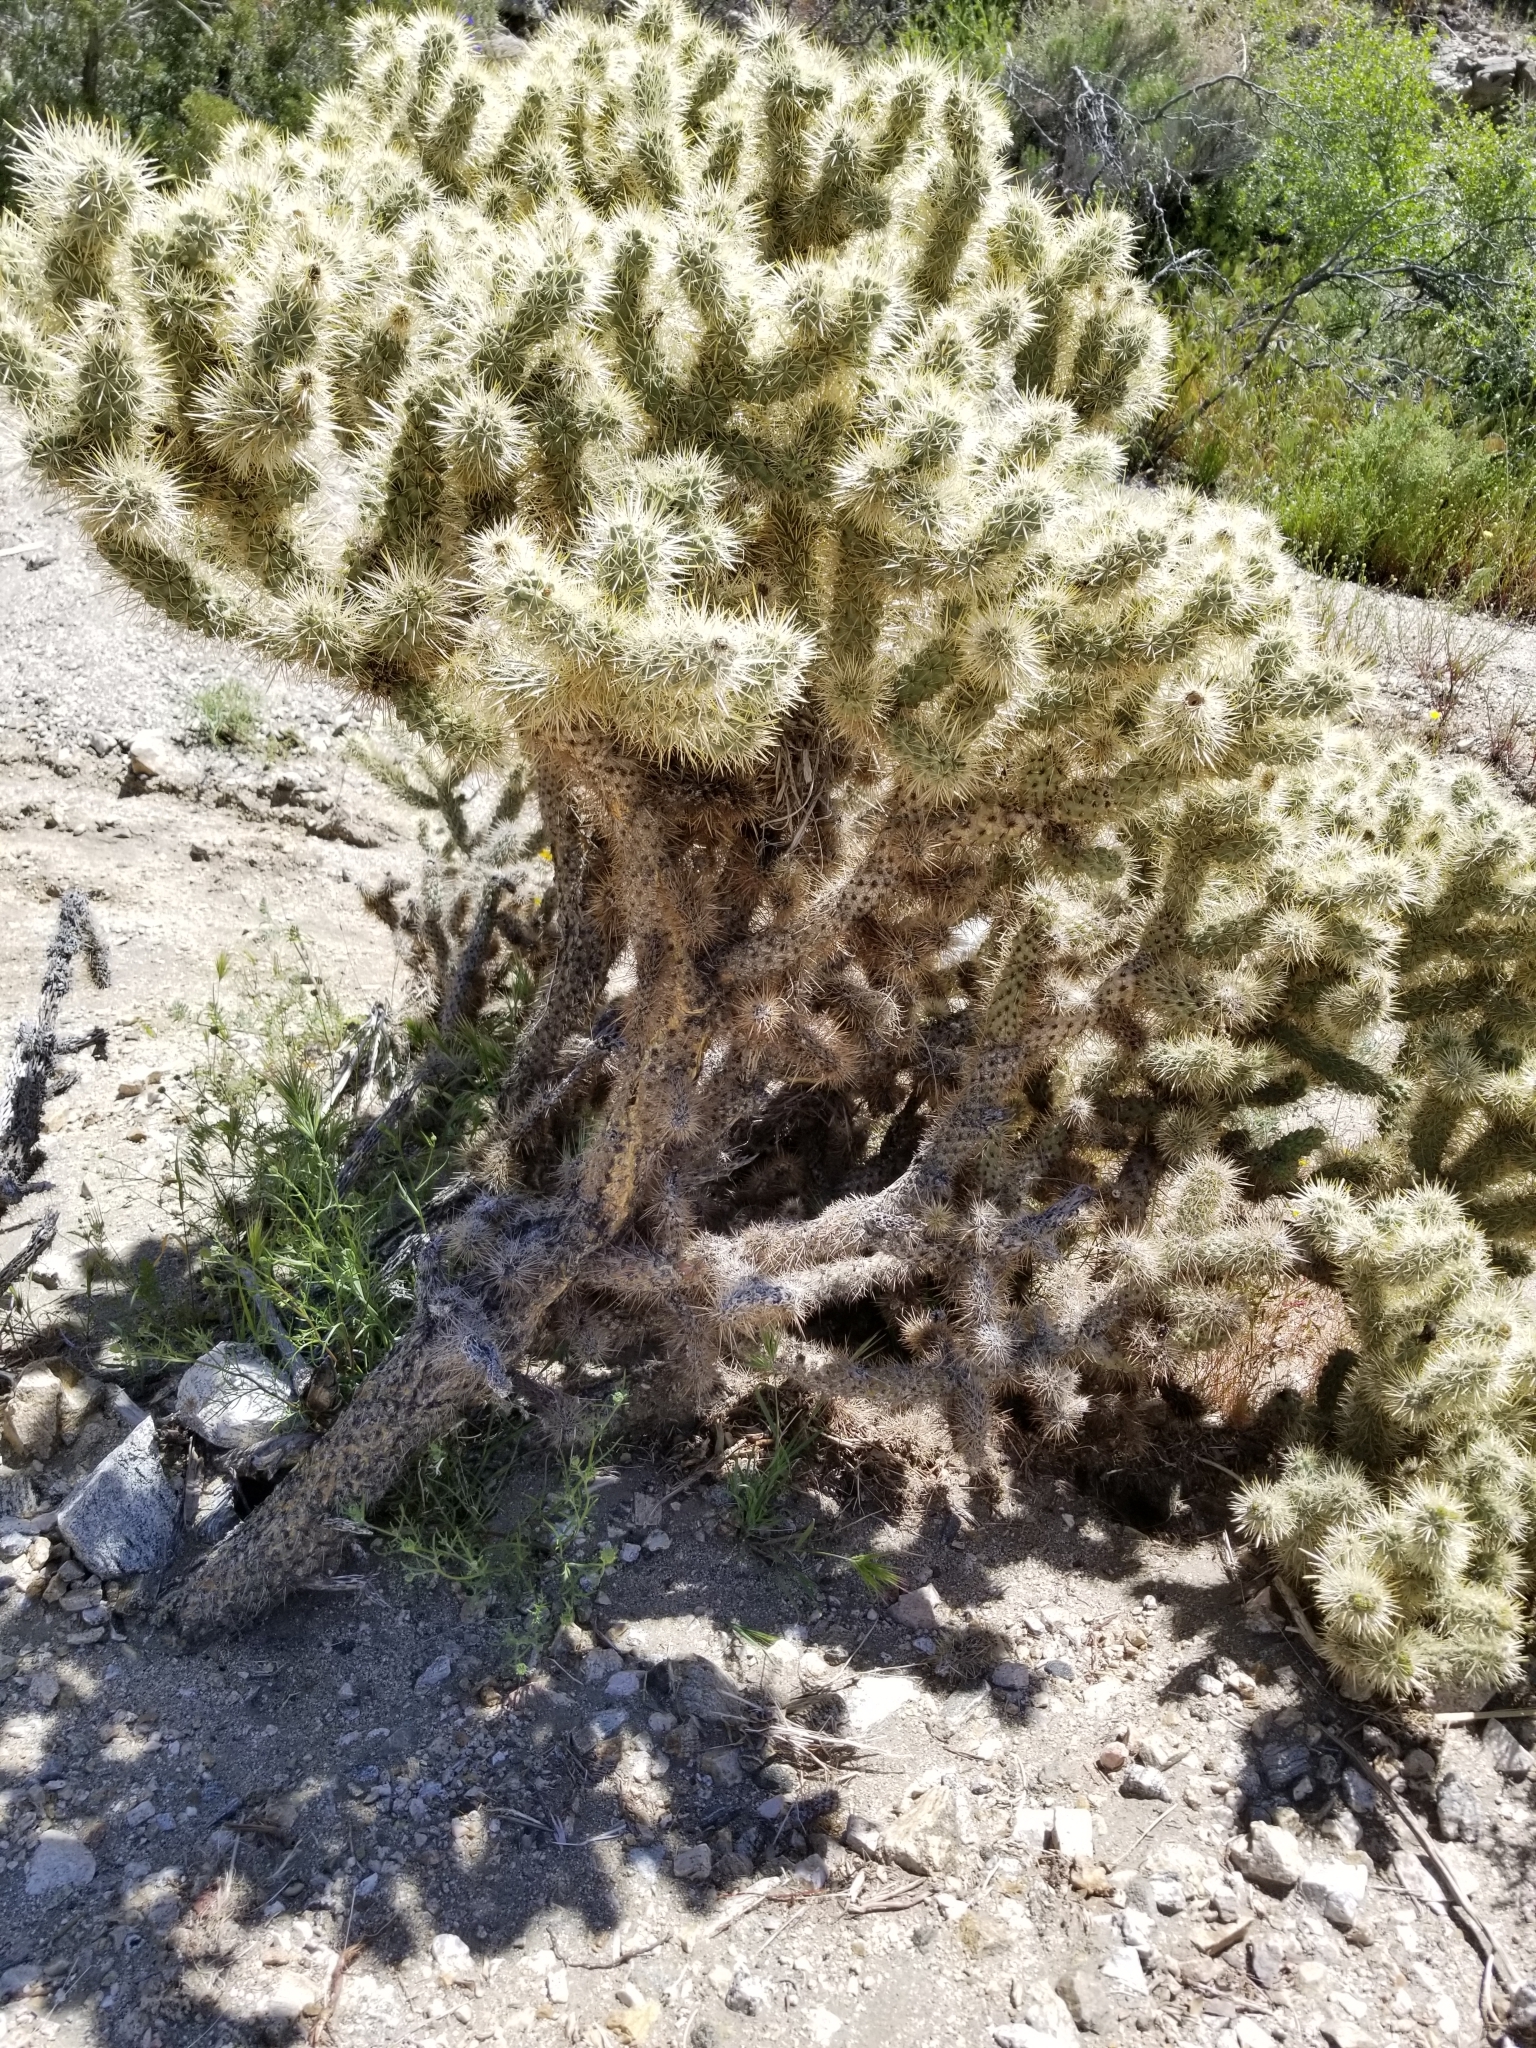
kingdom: Plantae
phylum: Tracheophyta
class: Magnoliopsida
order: Caryophyllales
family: Cactaceae
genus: Cylindropuntia
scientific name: Cylindropuntia echinocarpa
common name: Ground cholla
